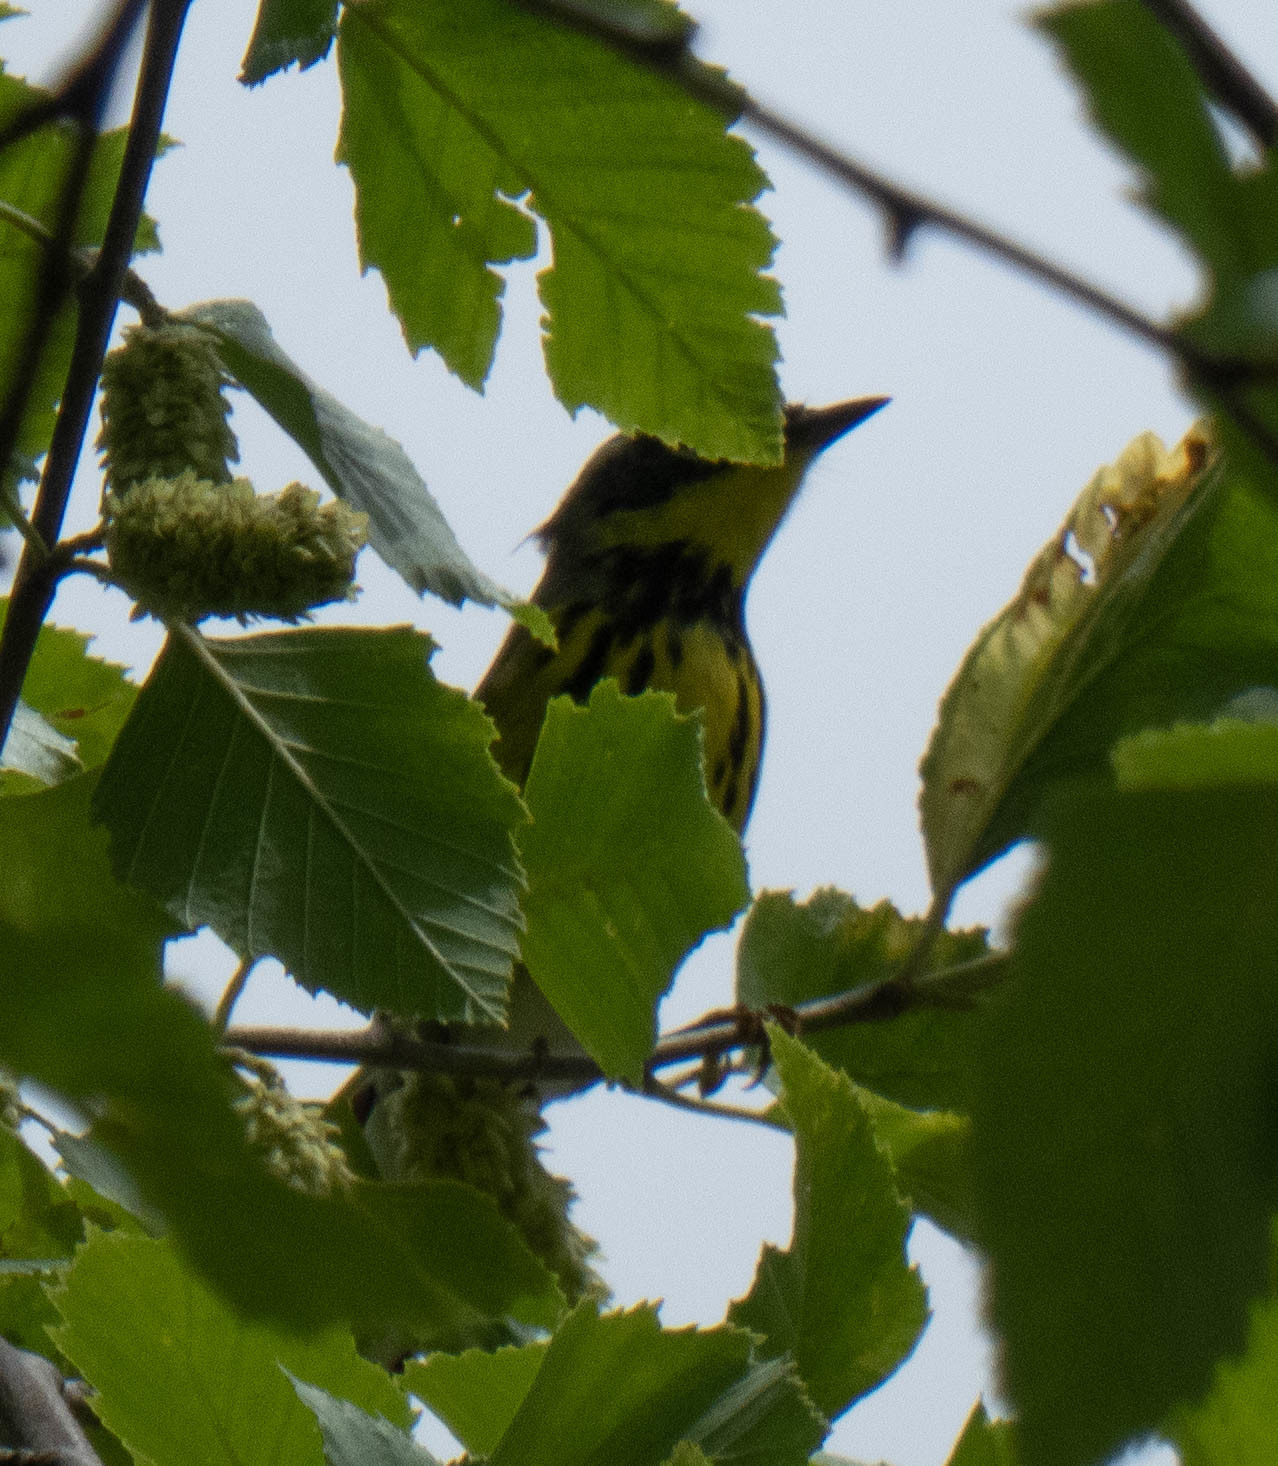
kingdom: Animalia
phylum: Chordata
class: Aves
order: Passeriformes
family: Parulidae
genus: Setophaga
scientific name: Setophaga magnolia
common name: Magnolia warbler
